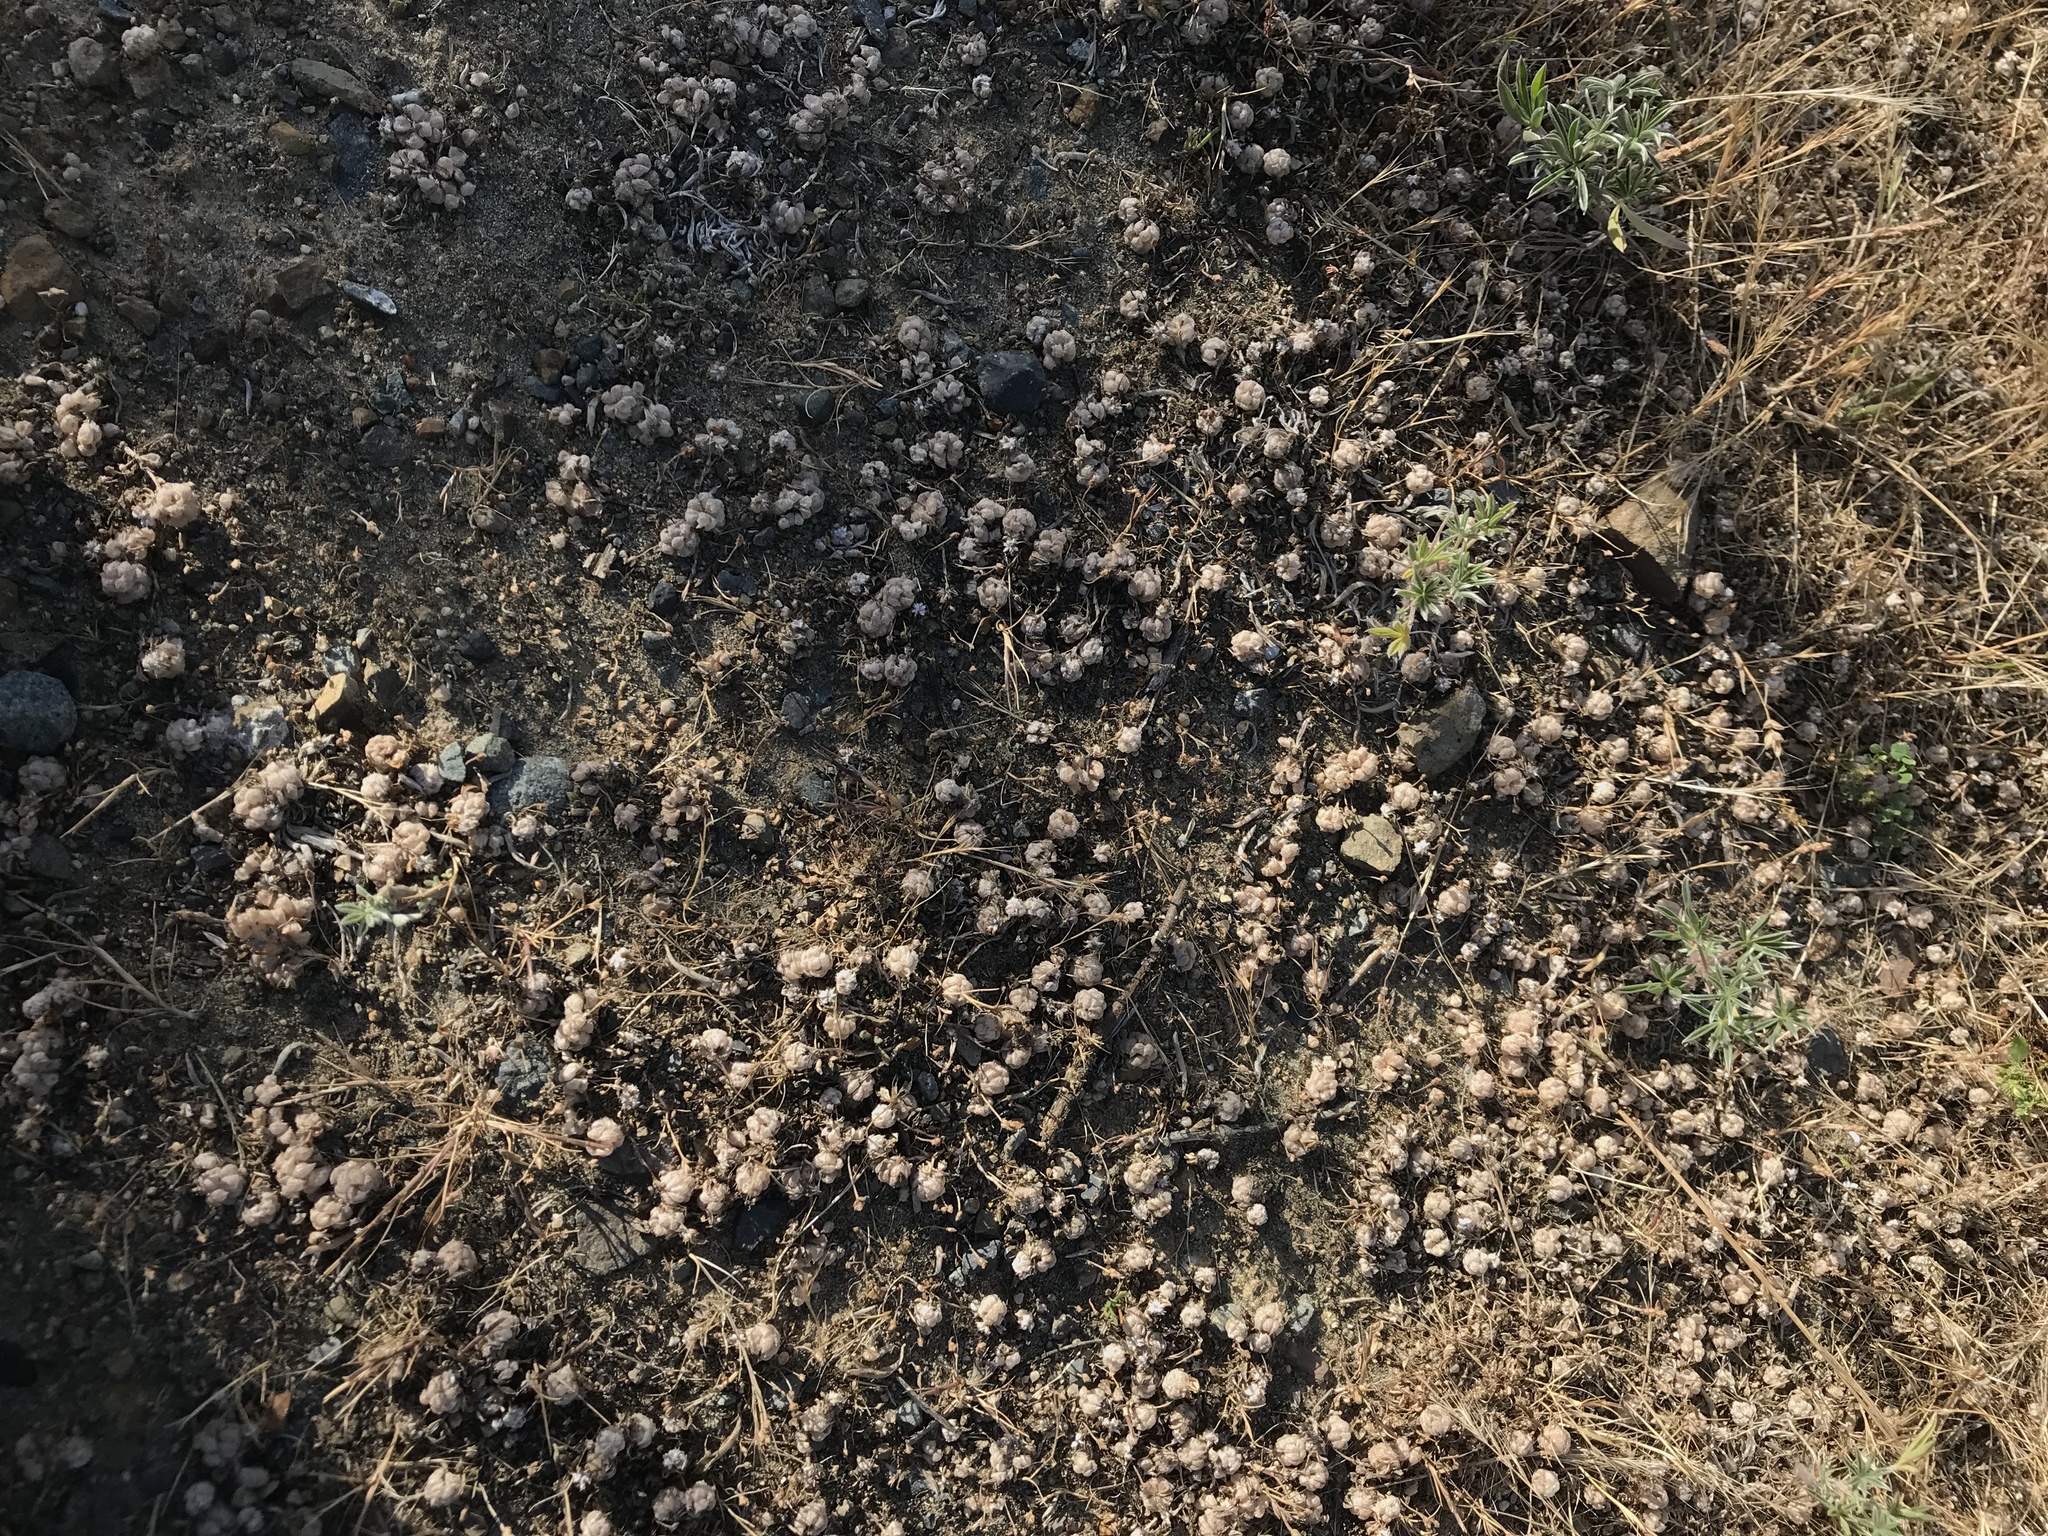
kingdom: Plantae
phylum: Tracheophyta
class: Magnoliopsida
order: Fabales
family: Fabaceae
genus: Trifolium
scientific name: Trifolium tomentosum
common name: Woolly clover
